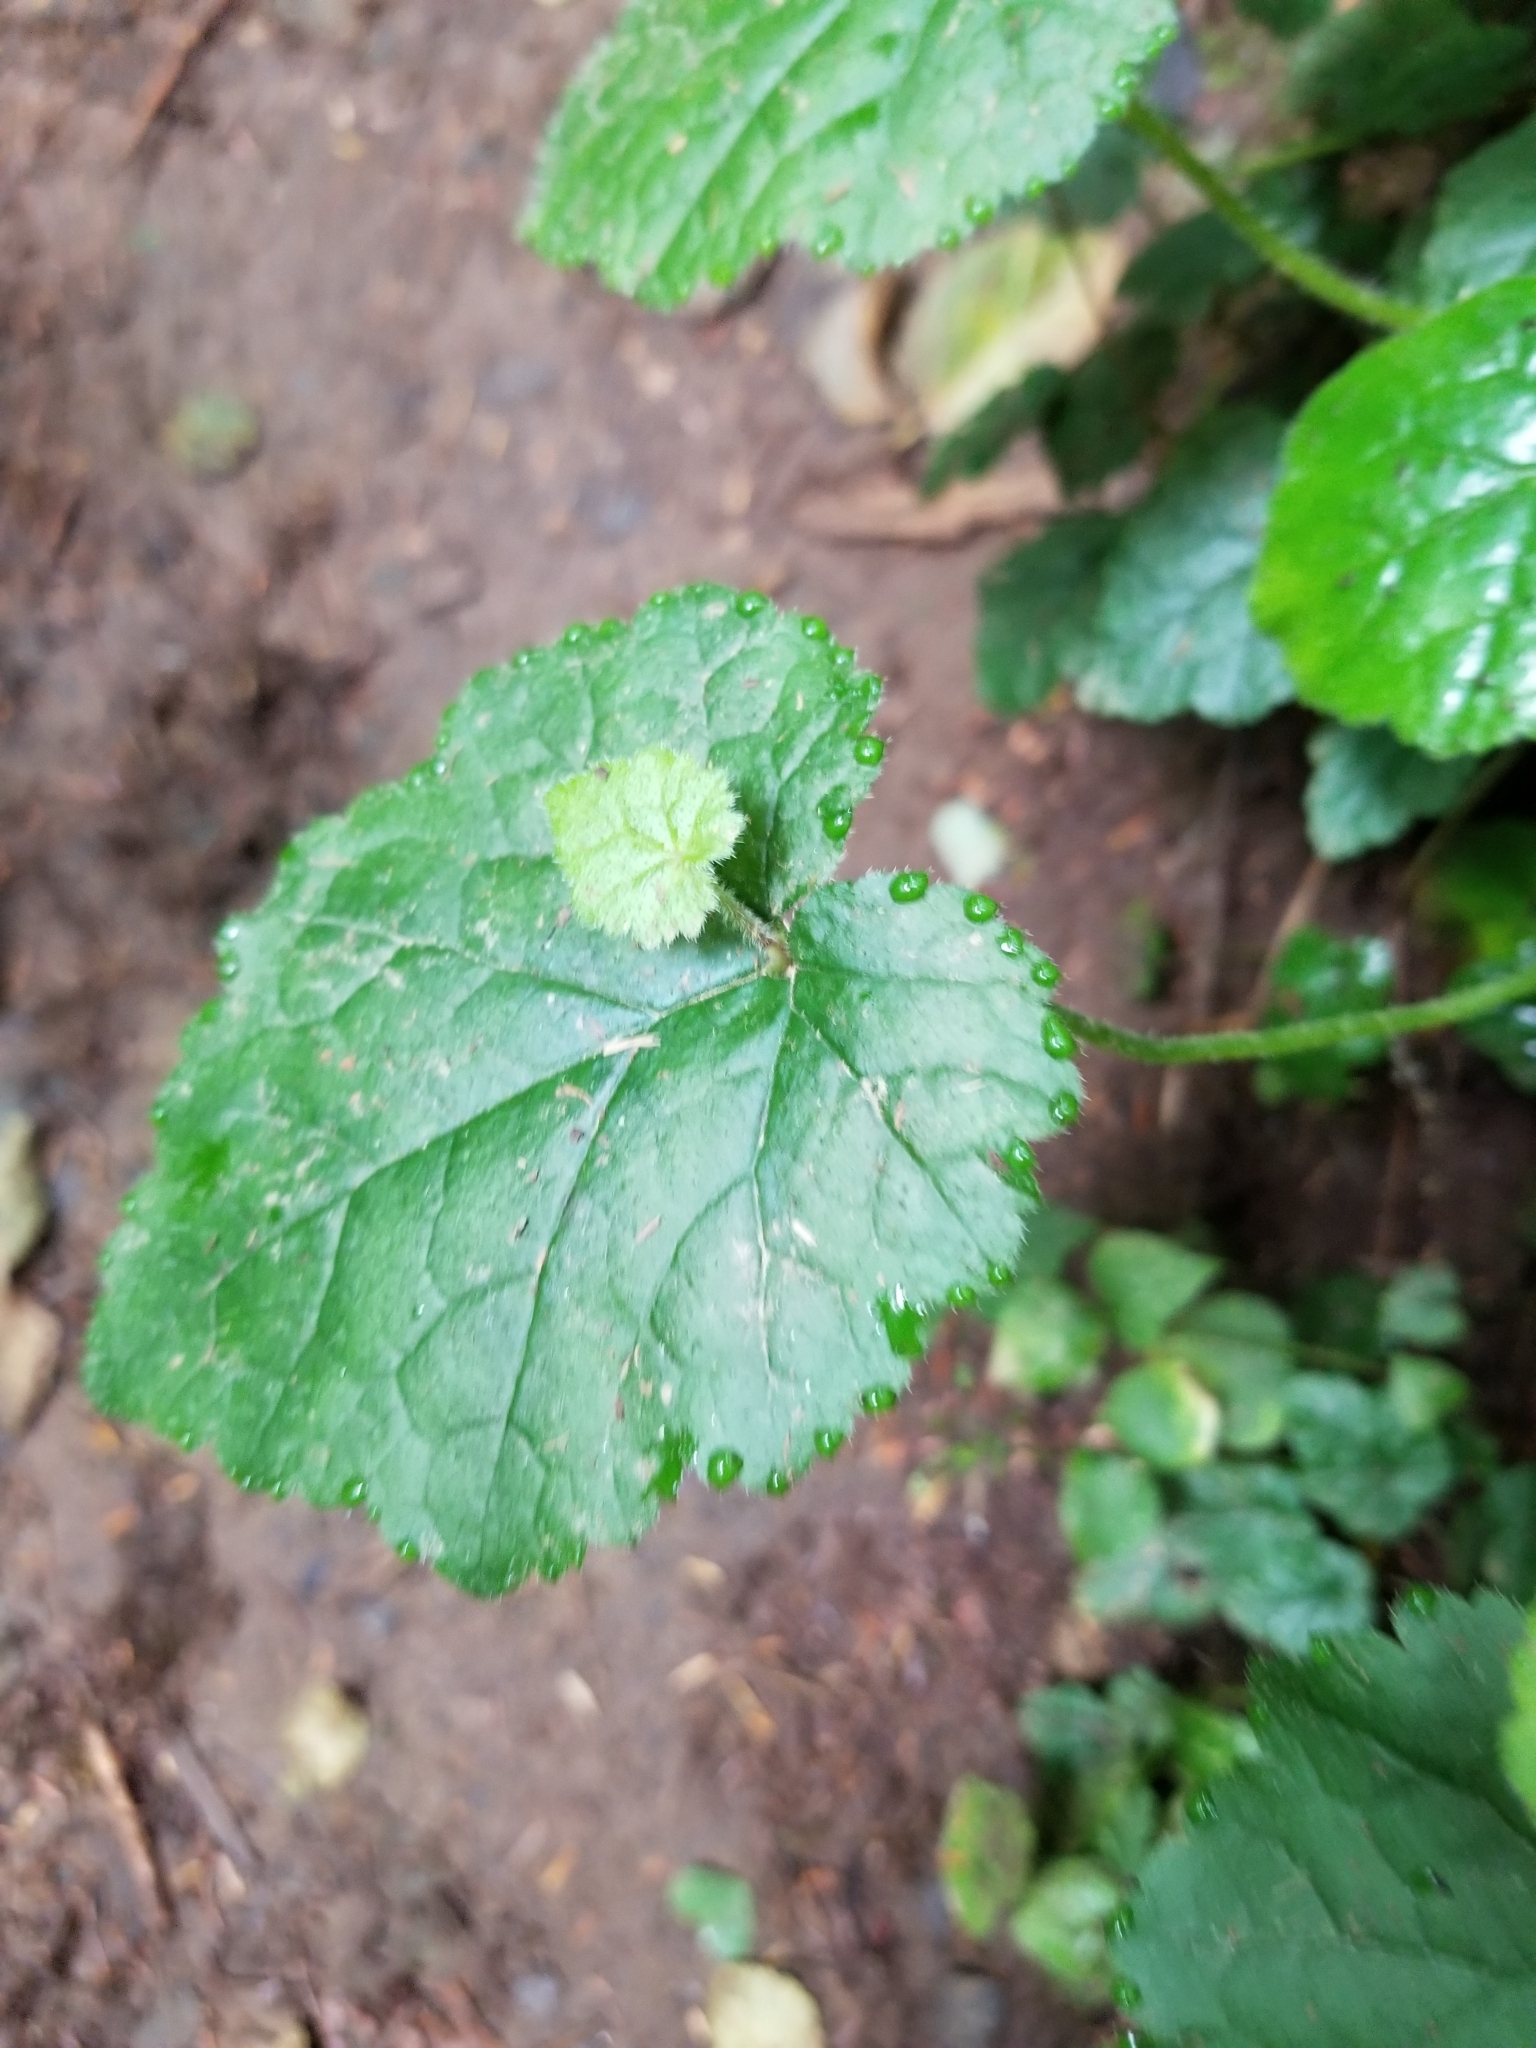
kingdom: Plantae
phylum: Tracheophyta
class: Magnoliopsida
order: Saxifragales
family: Saxifragaceae
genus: Tolmiea
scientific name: Tolmiea menziesii
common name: Pick-a-back-plant
